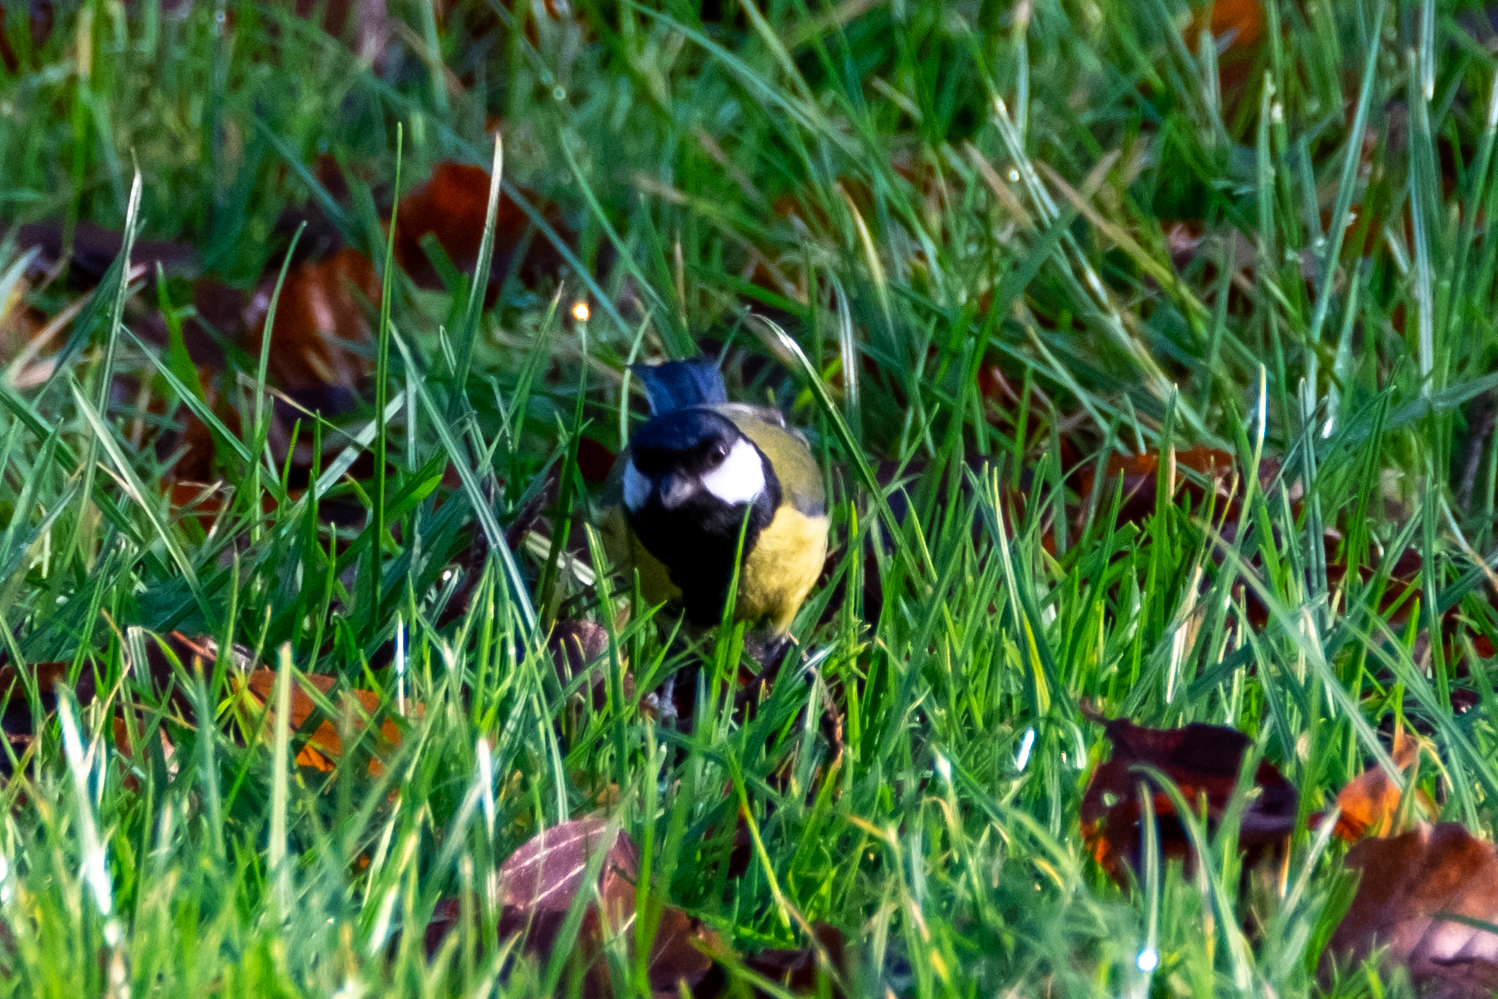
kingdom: Animalia
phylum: Chordata
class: Aves
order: Passeriformes
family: Paridae
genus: Parus
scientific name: Parus major
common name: Great tit
